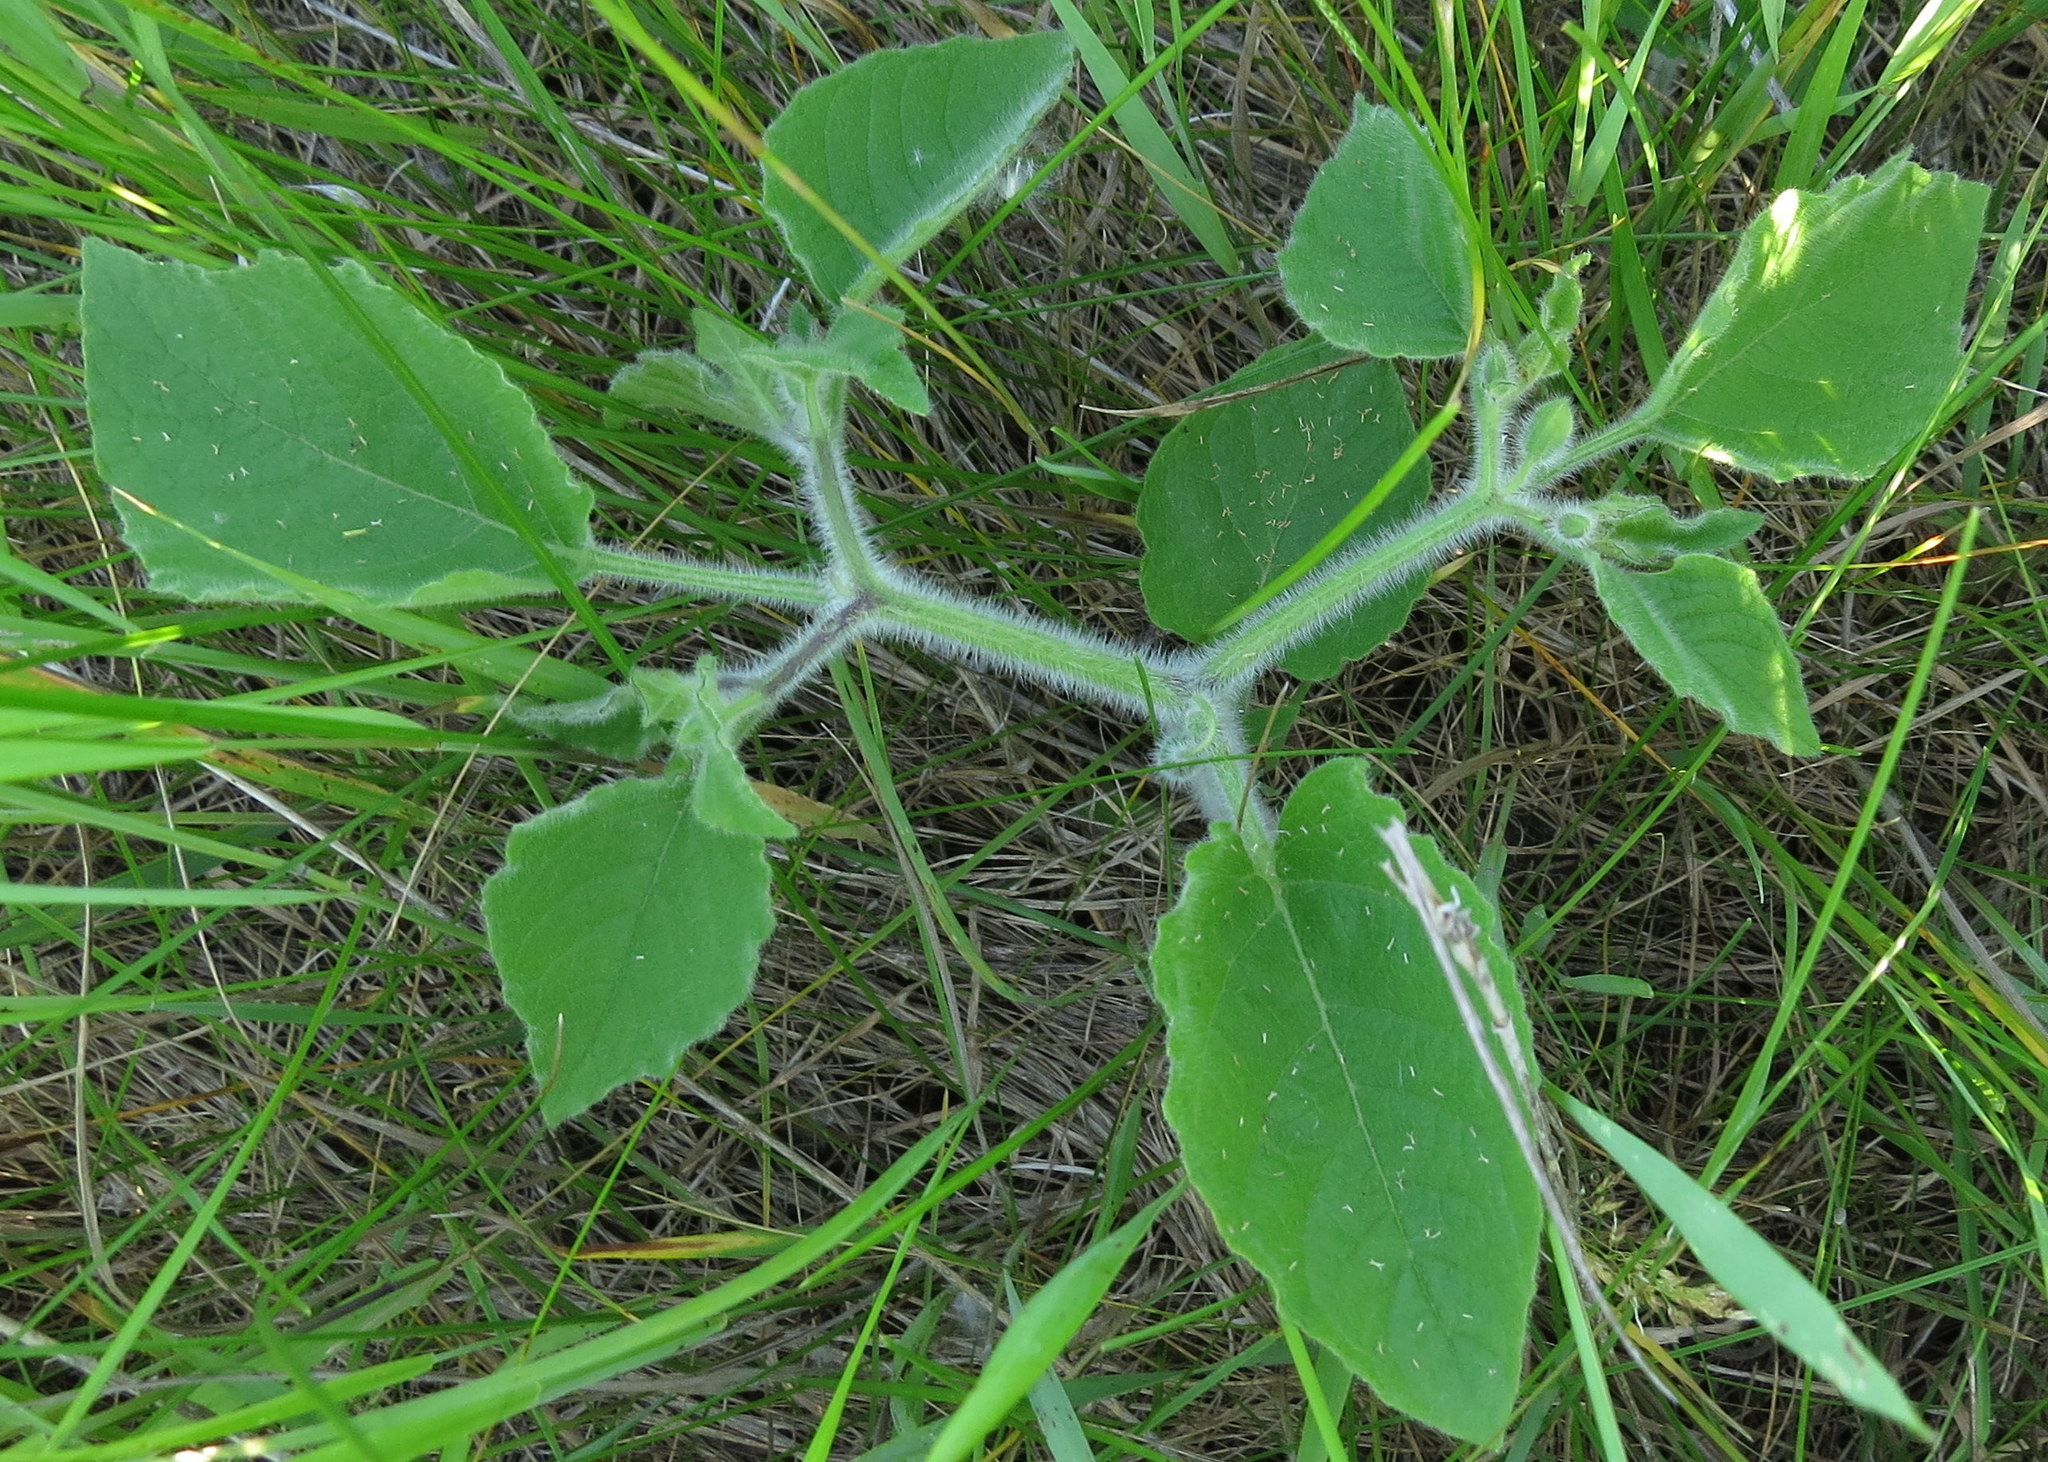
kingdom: Plantae
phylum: Tracheophyta
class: Magnoliopsida
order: Solanales
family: Solanaceae
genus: Physalis
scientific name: Physalis heterophylla
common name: Clammy ground-cherry
